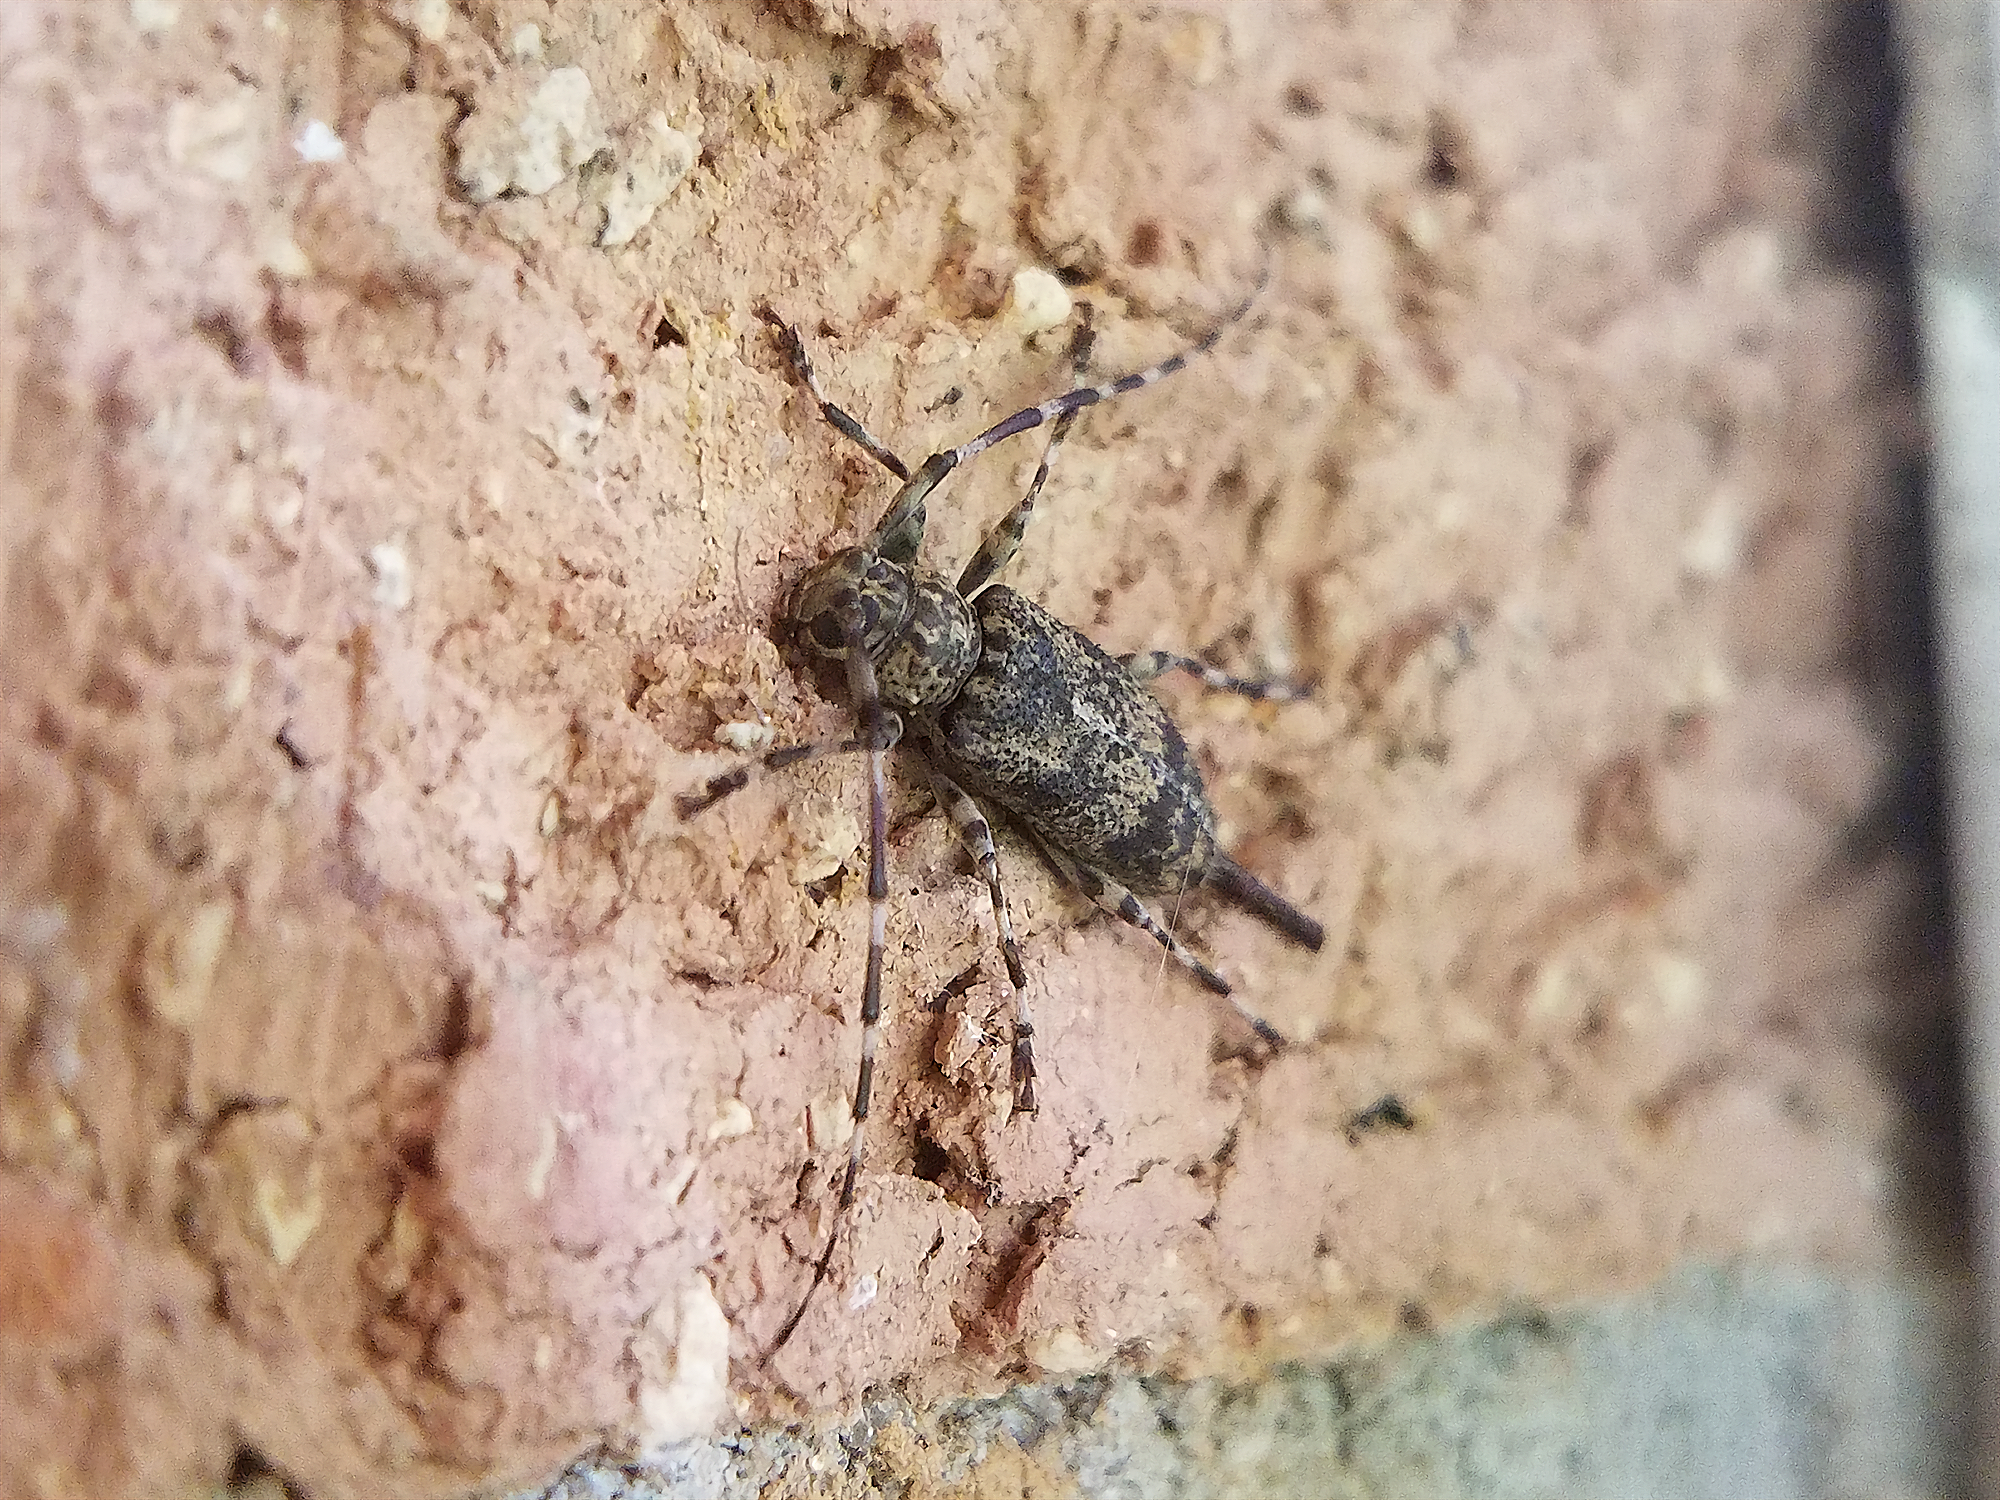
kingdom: Animalia
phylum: Arthropoda
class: Insecta
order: Coleoptera
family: Cerambycidae
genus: Graphisurus
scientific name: Graphisurus fasciatus
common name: Banded graphisurus
